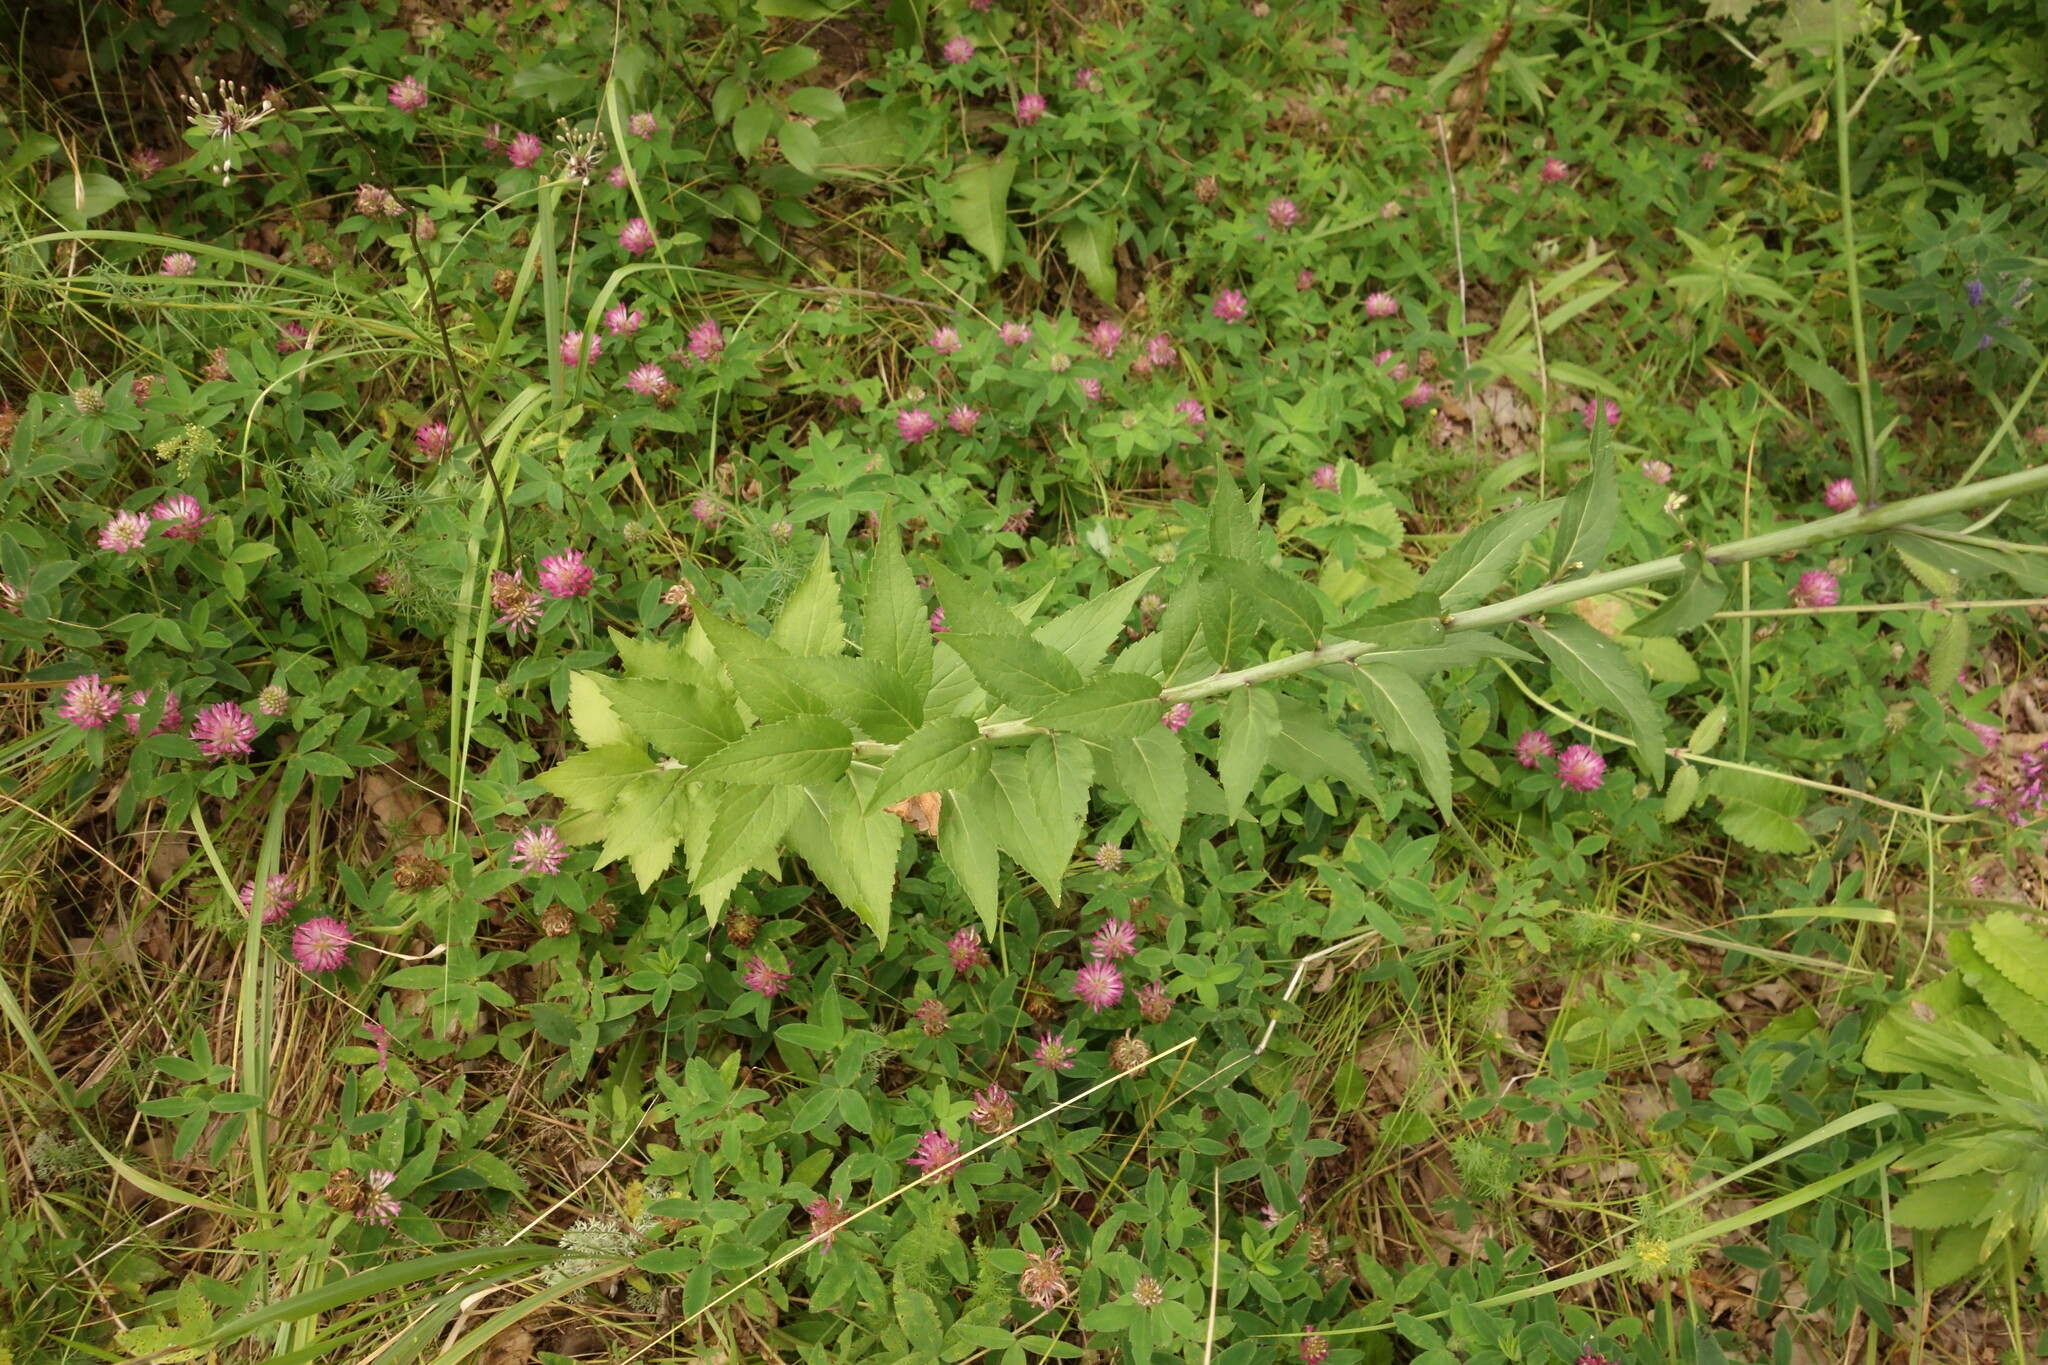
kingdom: Plantae
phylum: Tracheophyta
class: Magnoliopsida
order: Asterales
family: Campanulaceae
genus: Adenophora
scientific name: Adenophora liliifolia
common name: Lilyleaf ladybells
